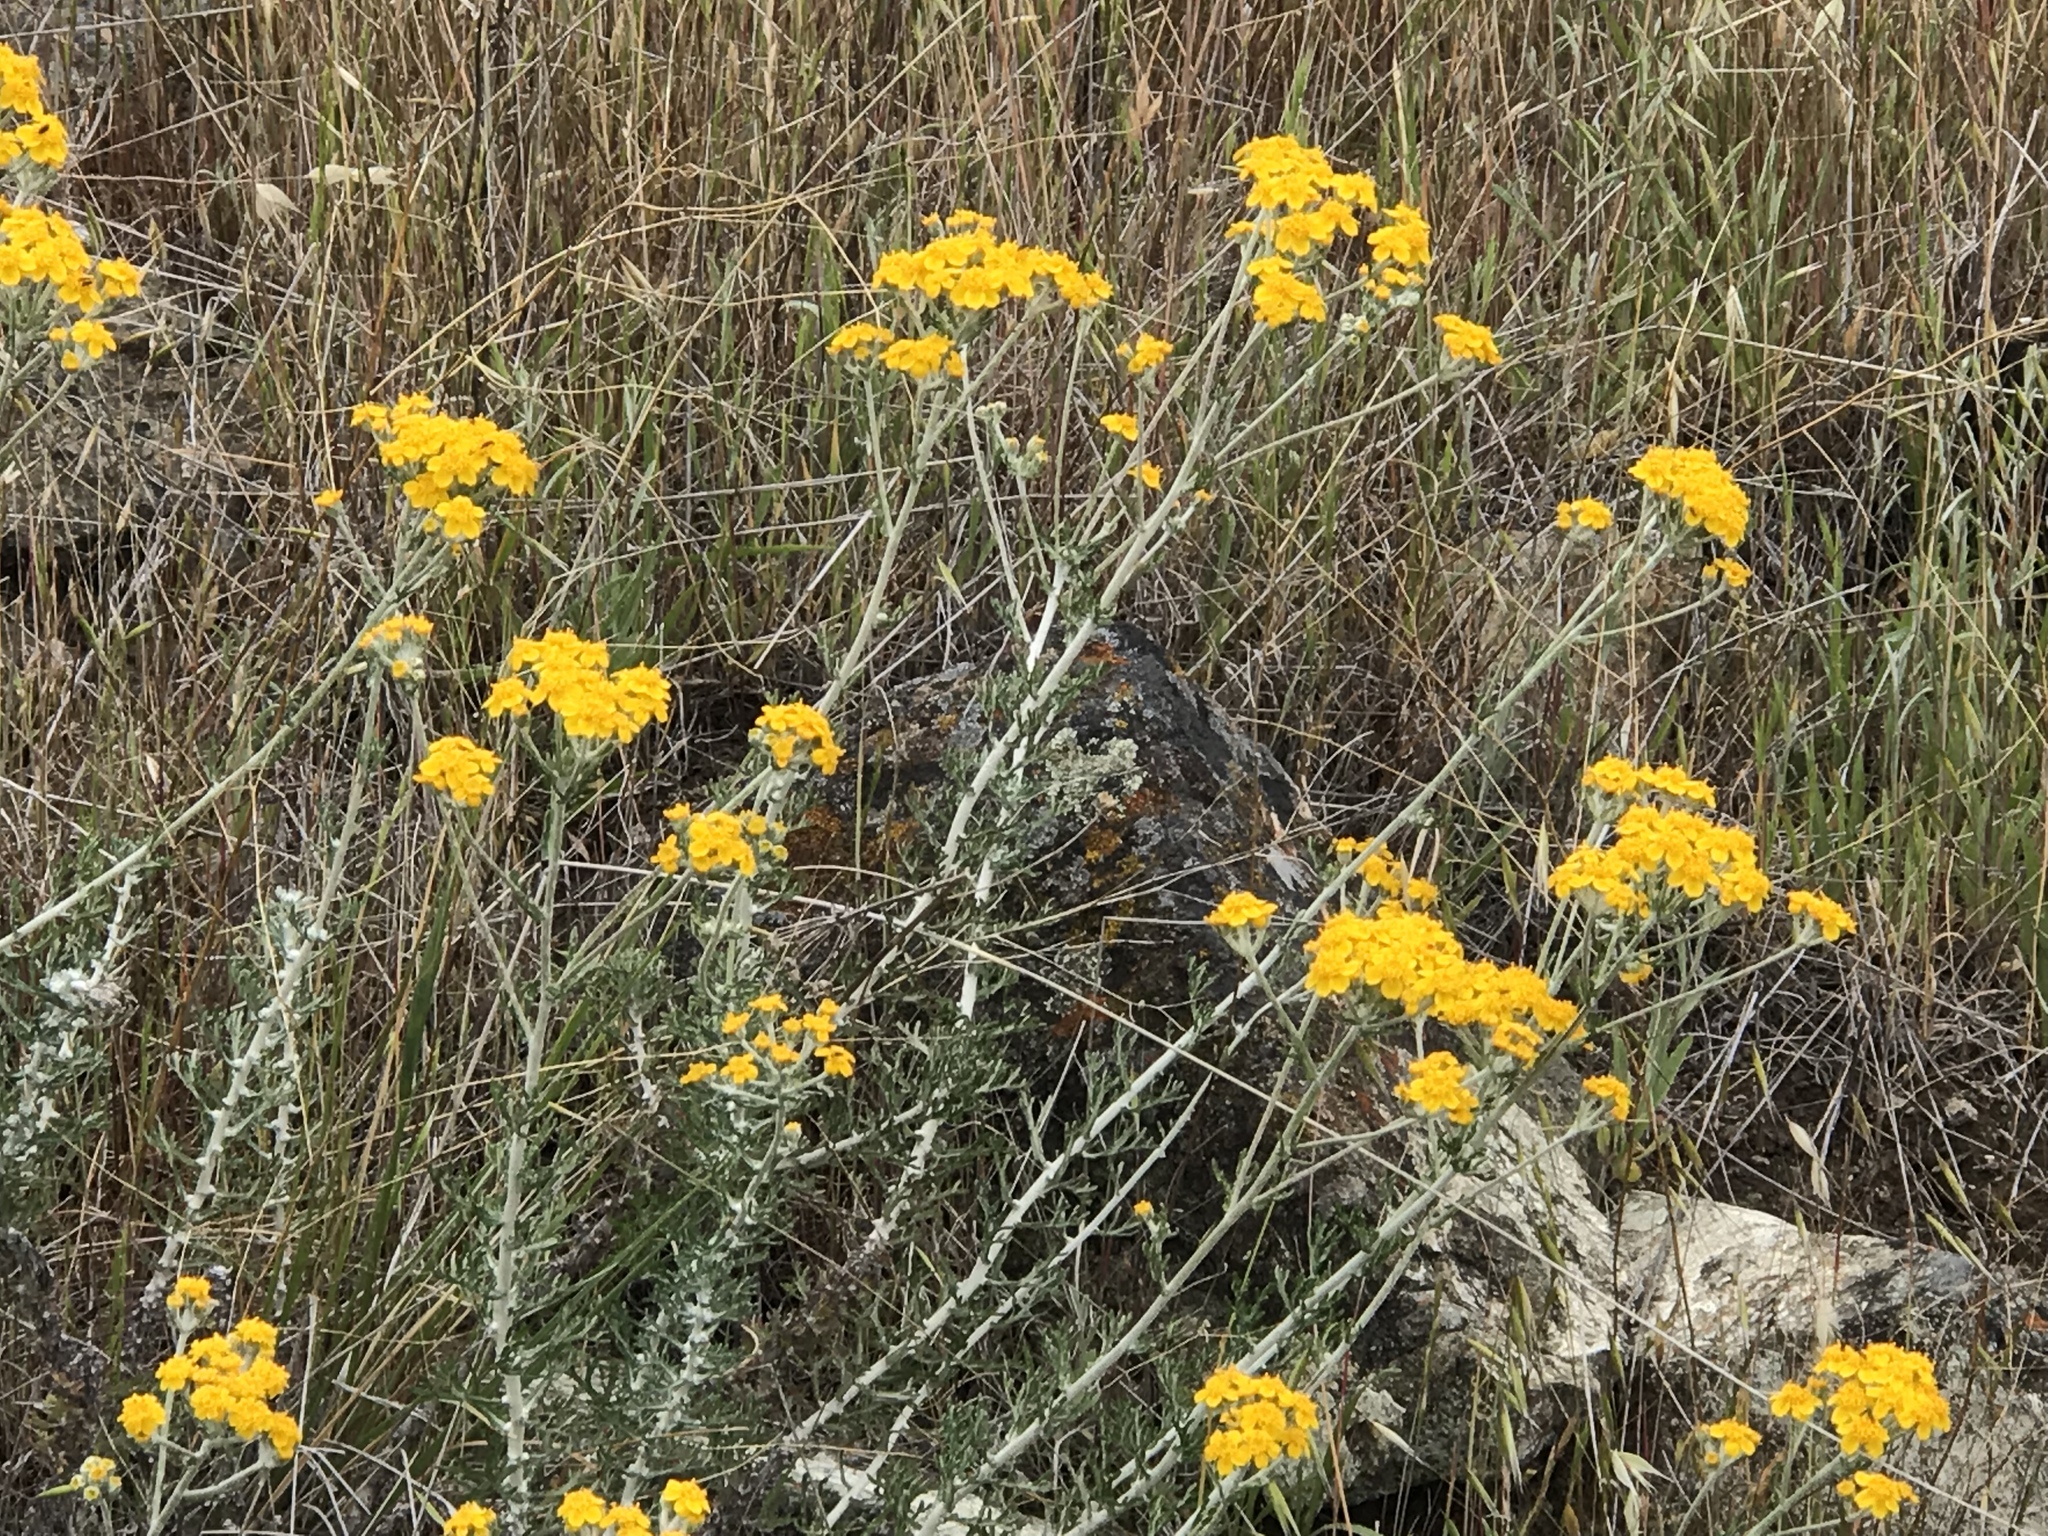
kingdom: Plantae
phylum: Tracheophyta
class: Magnoliopsida
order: Asterales
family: Asteraceae
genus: Eriophyllum
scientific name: Eriophyllum confertiflorum
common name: Golden-yarrow
